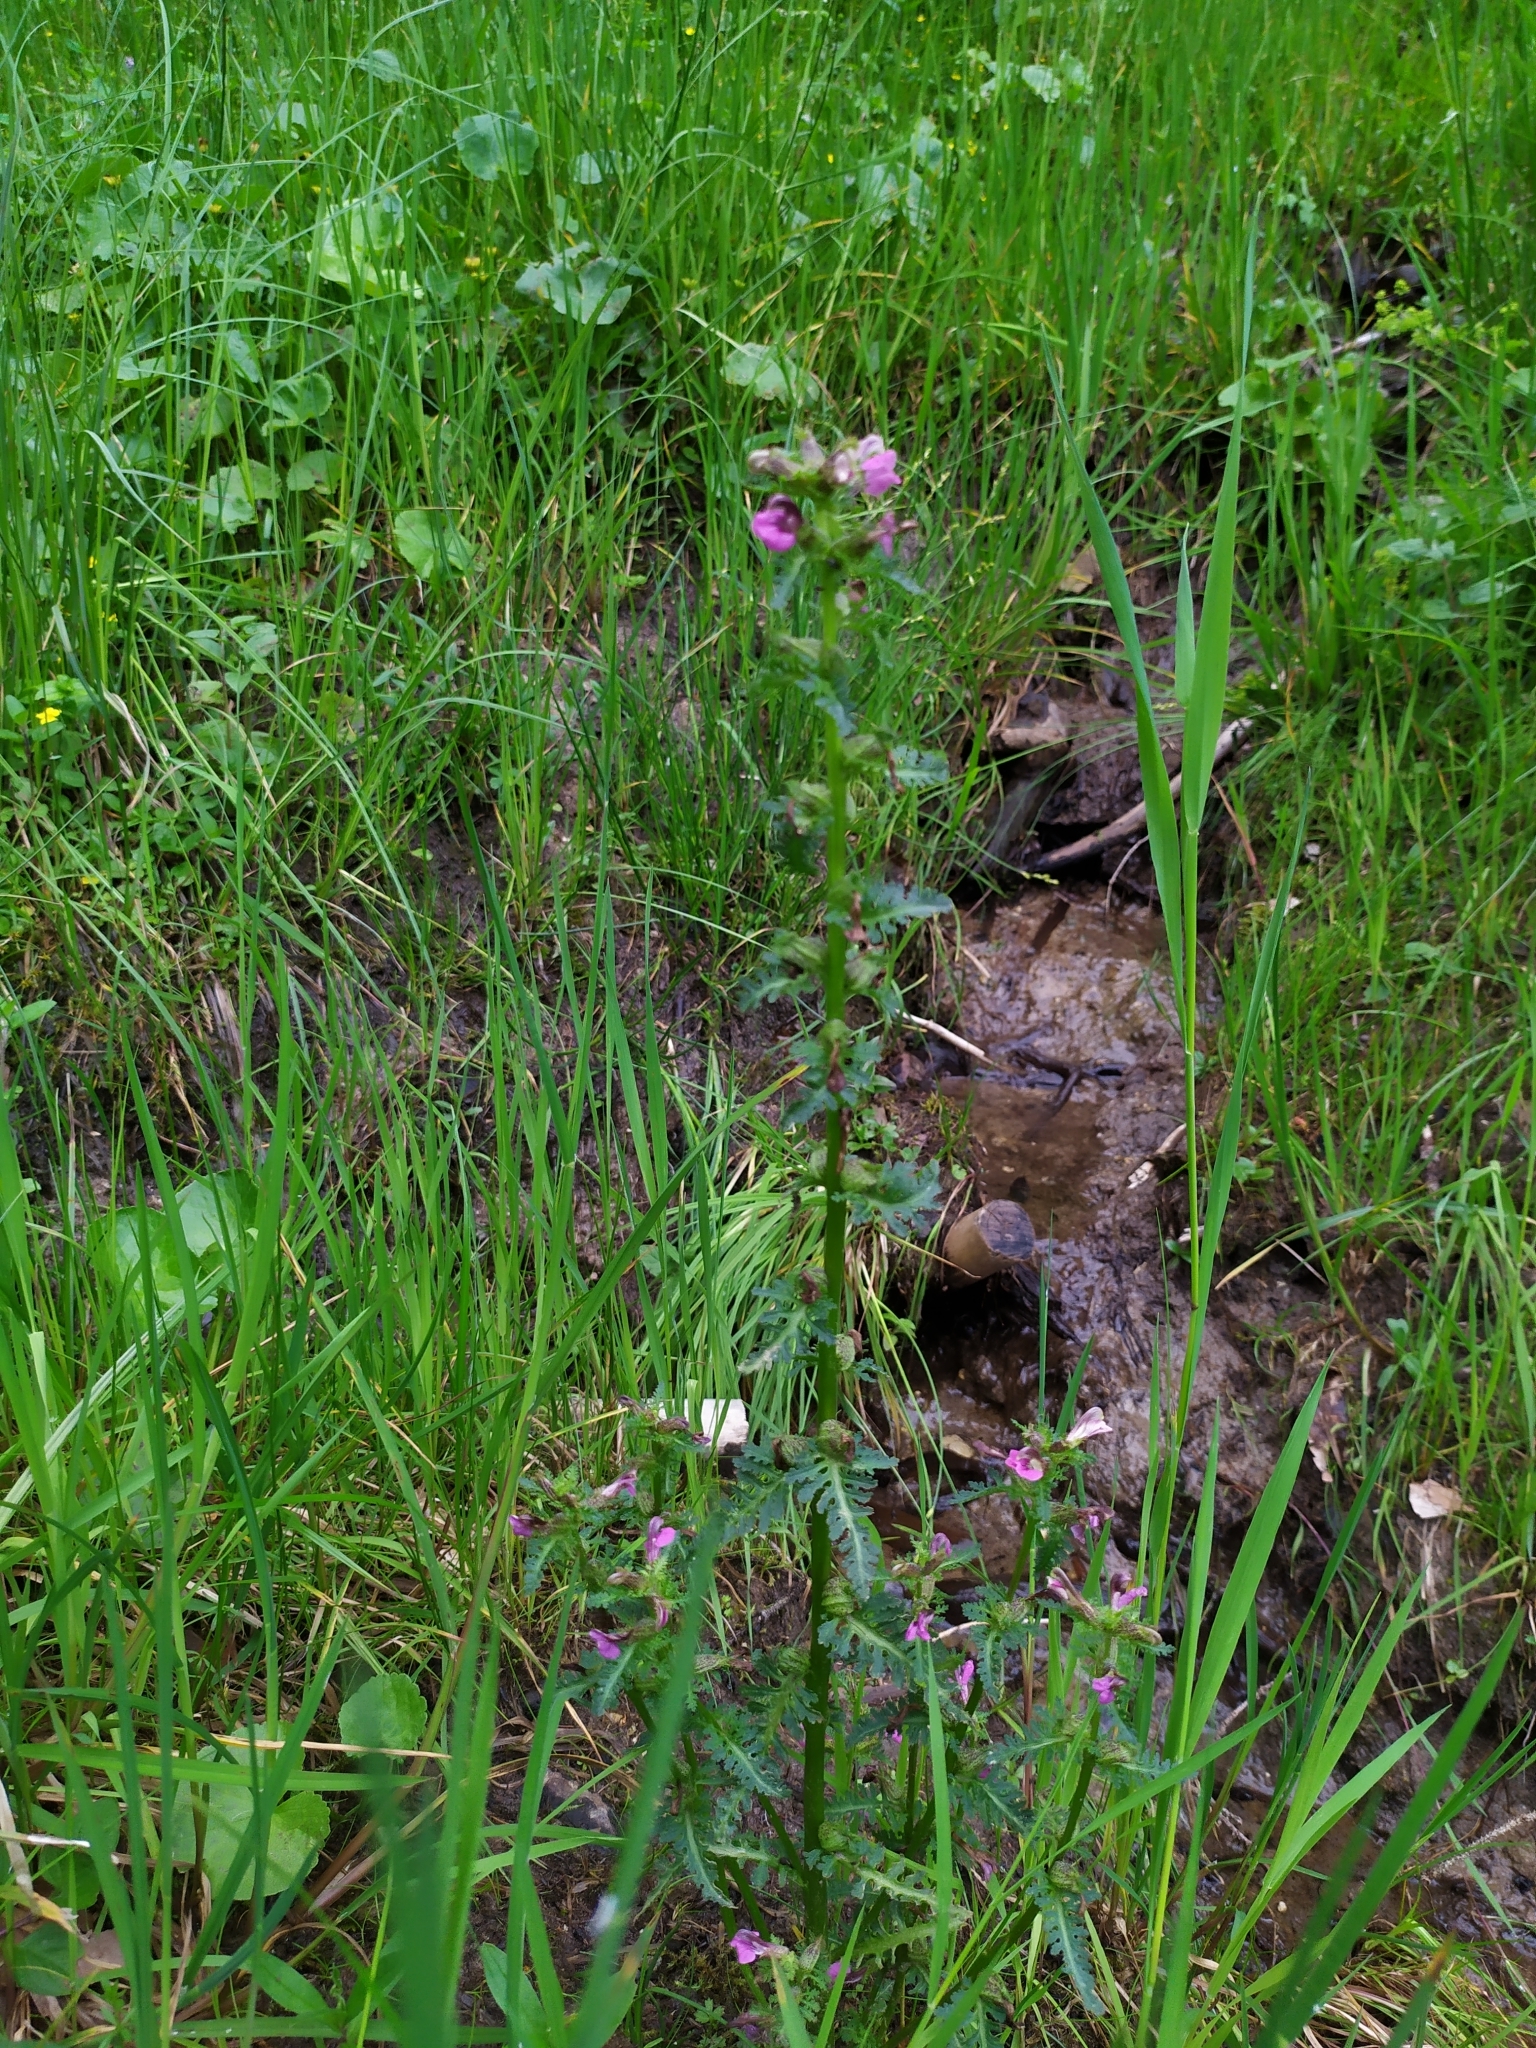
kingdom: Plantae
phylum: Tracheophyta
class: Magnoliopsida
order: Lamiales
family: Orobanchaceae
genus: Pedicularis
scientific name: Pedicularis palustris
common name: Marsh lousewort
